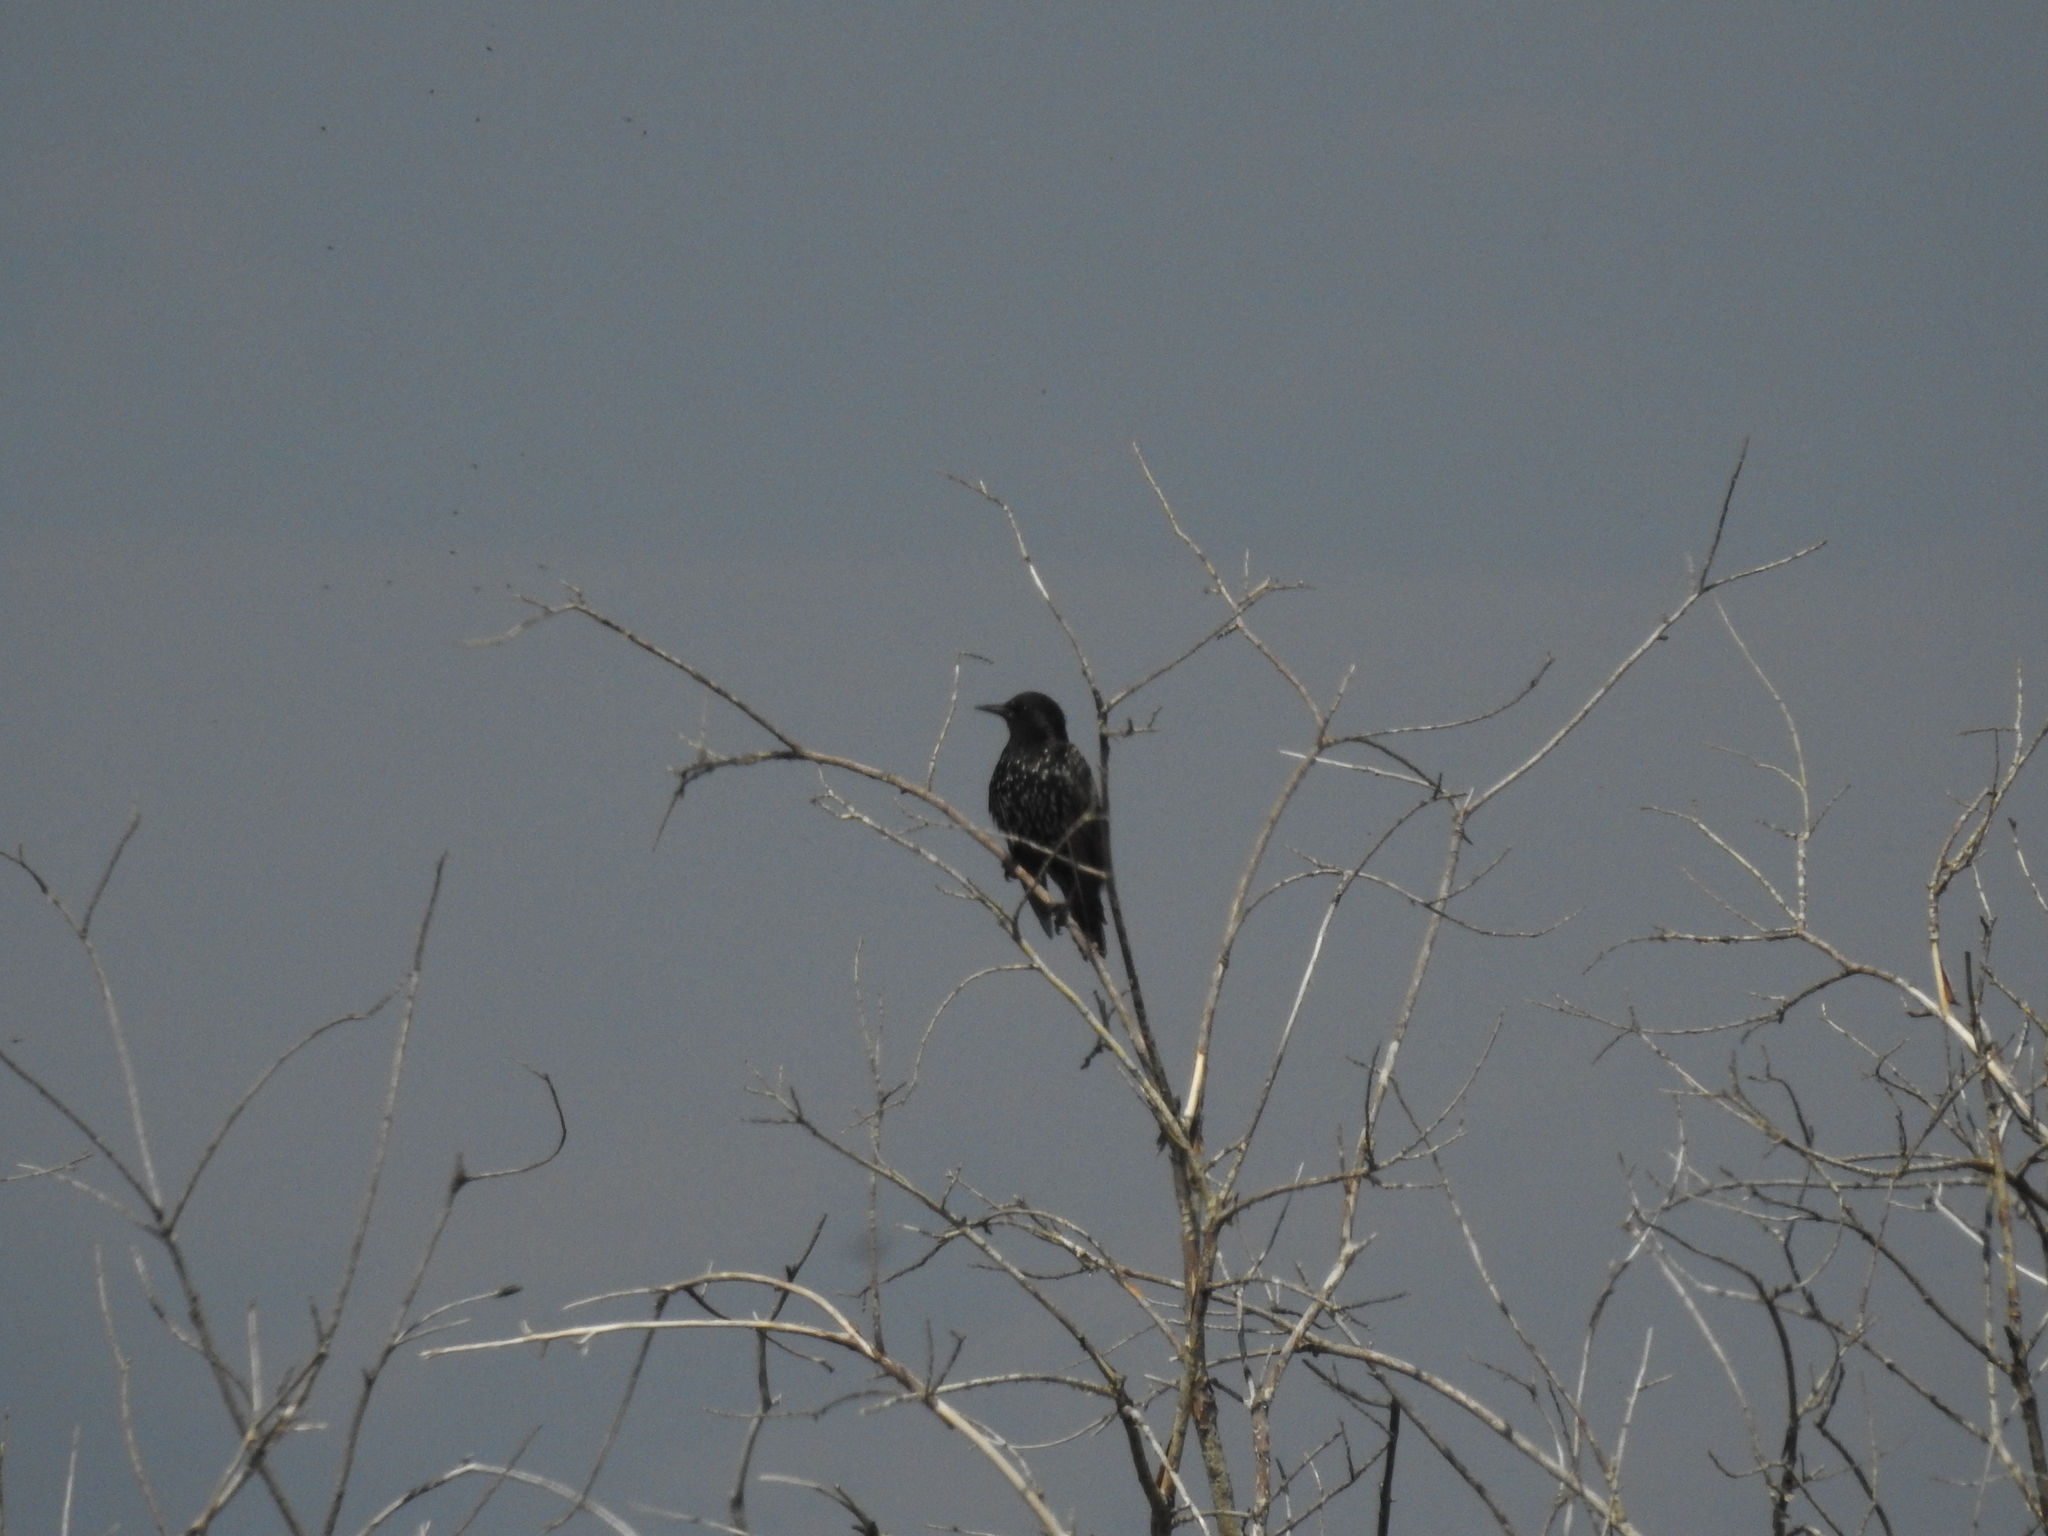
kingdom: Animalia
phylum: Chordata
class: Aves
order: Passeriformes
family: Sturnidae
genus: Sturnus
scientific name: Sturnus vulgaris
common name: Common starling
